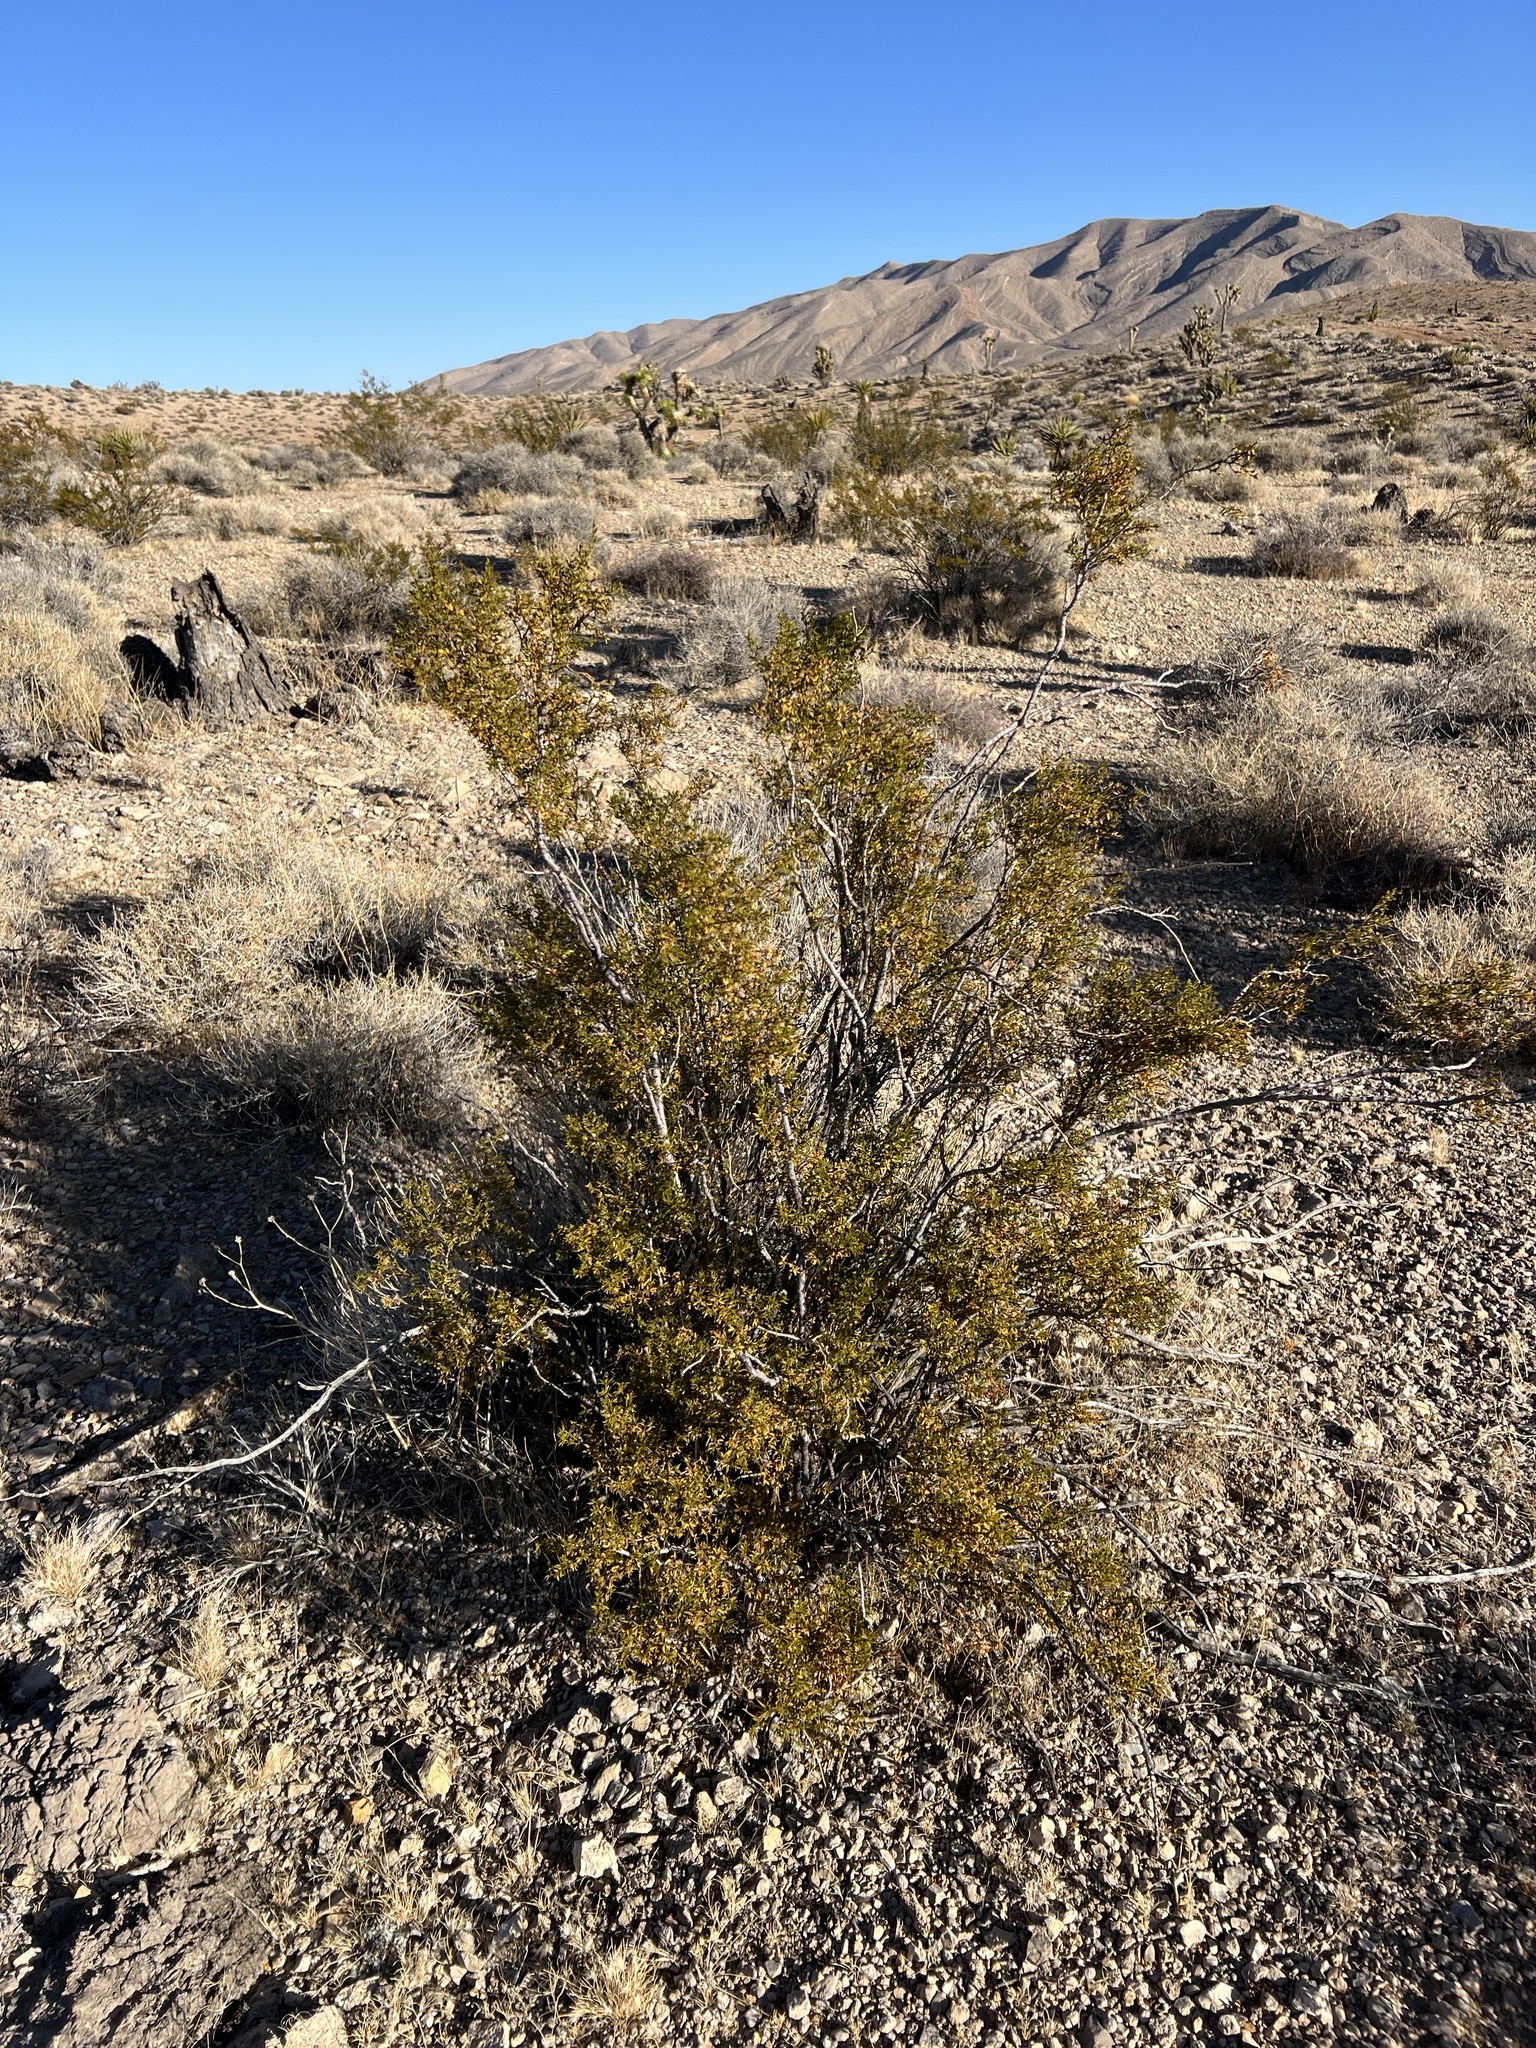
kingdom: Plantae
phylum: Tracheophyta
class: Magnoliopsida
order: Zygophyllales
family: Zygophyllaceae
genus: Larrea
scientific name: Larrea tridentata
